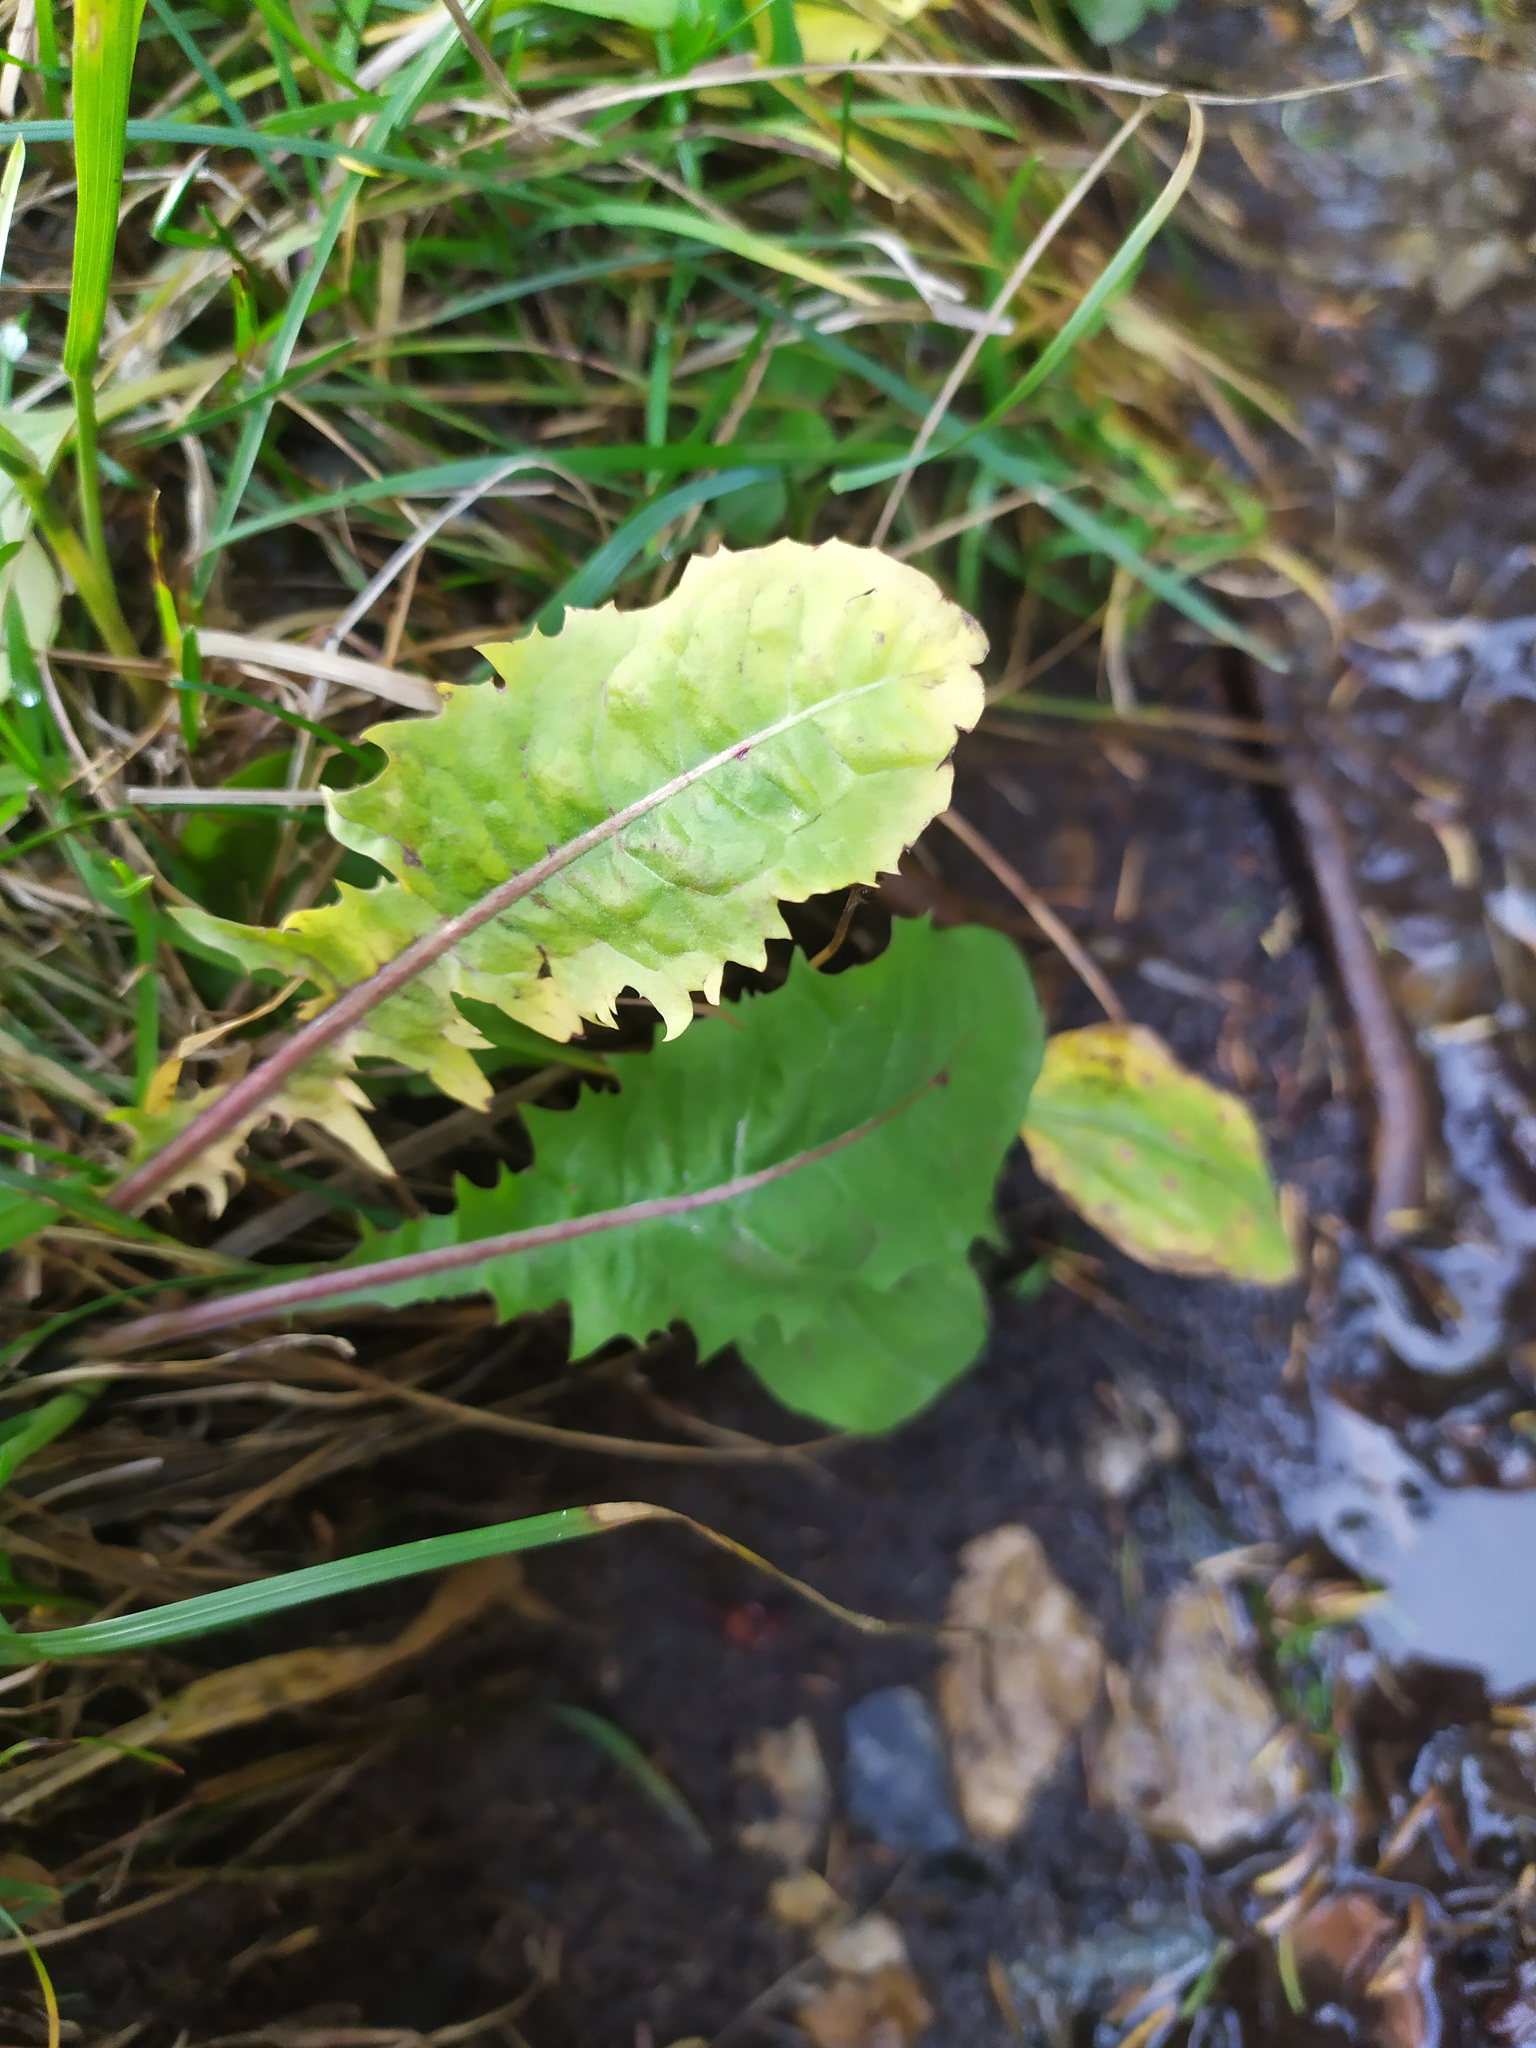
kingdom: Plantae
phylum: Tracheophyta
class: Magnoliopsida
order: Asterales
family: Asteraceae
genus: Taraxacum
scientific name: Taraxacum officinale
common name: Common dandelion
